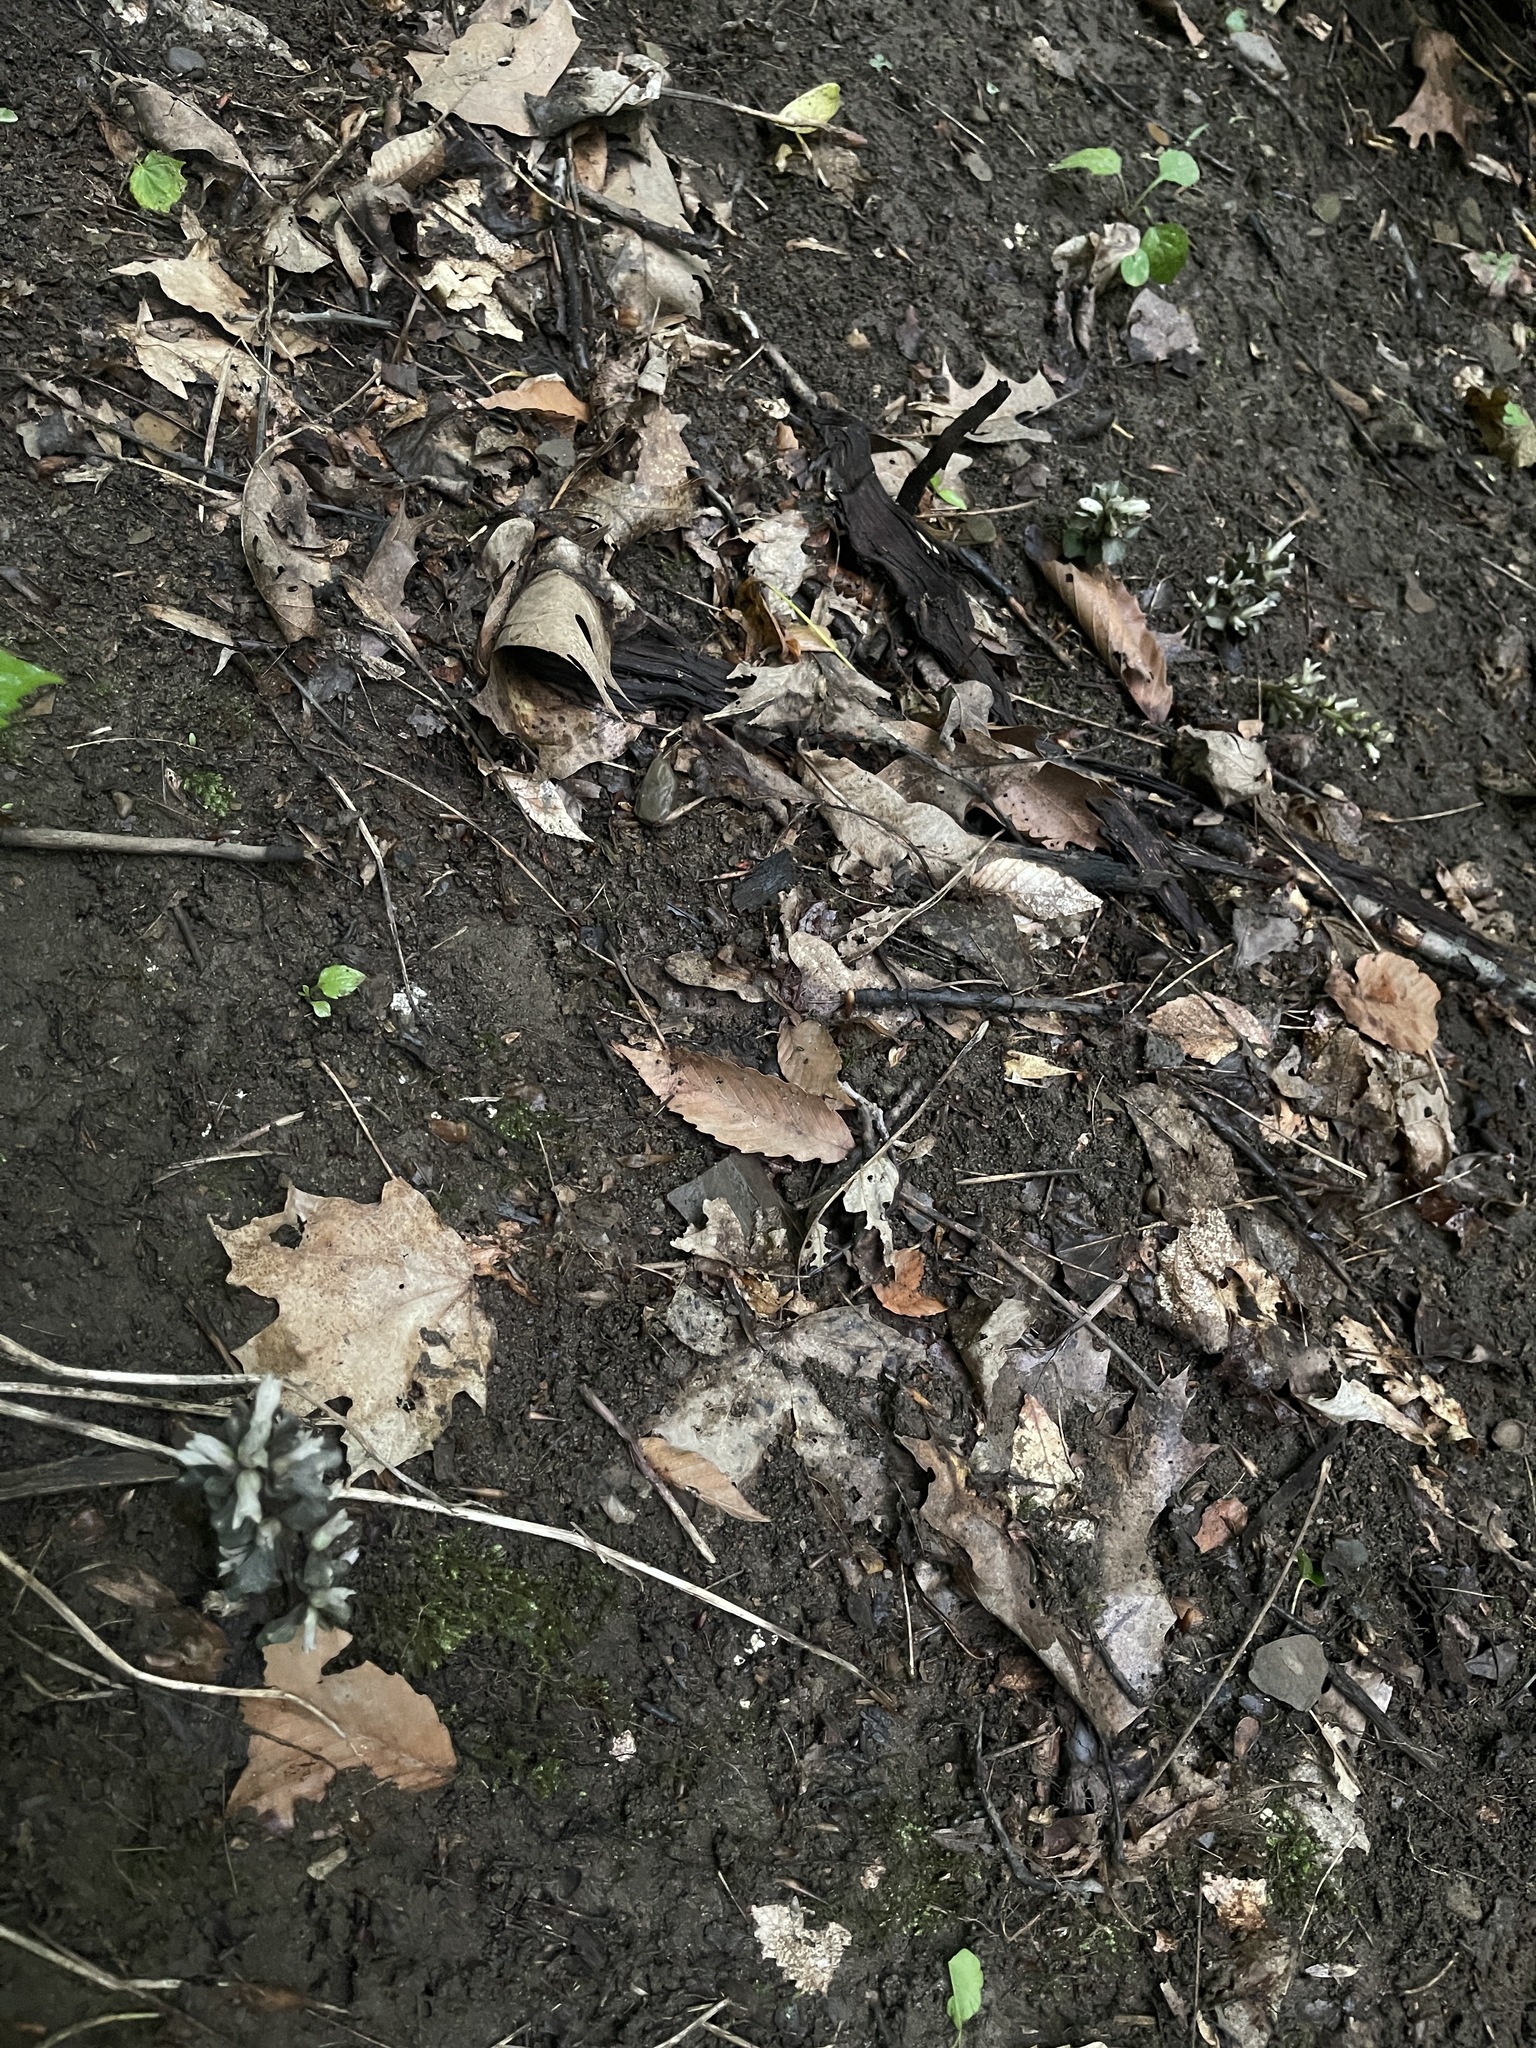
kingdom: Plantae
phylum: Tracheophyta
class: Magnoliopsida
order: Gentianales
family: Gentianaceae
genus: Obolaria
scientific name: Obolaria virginica
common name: Pennywort
